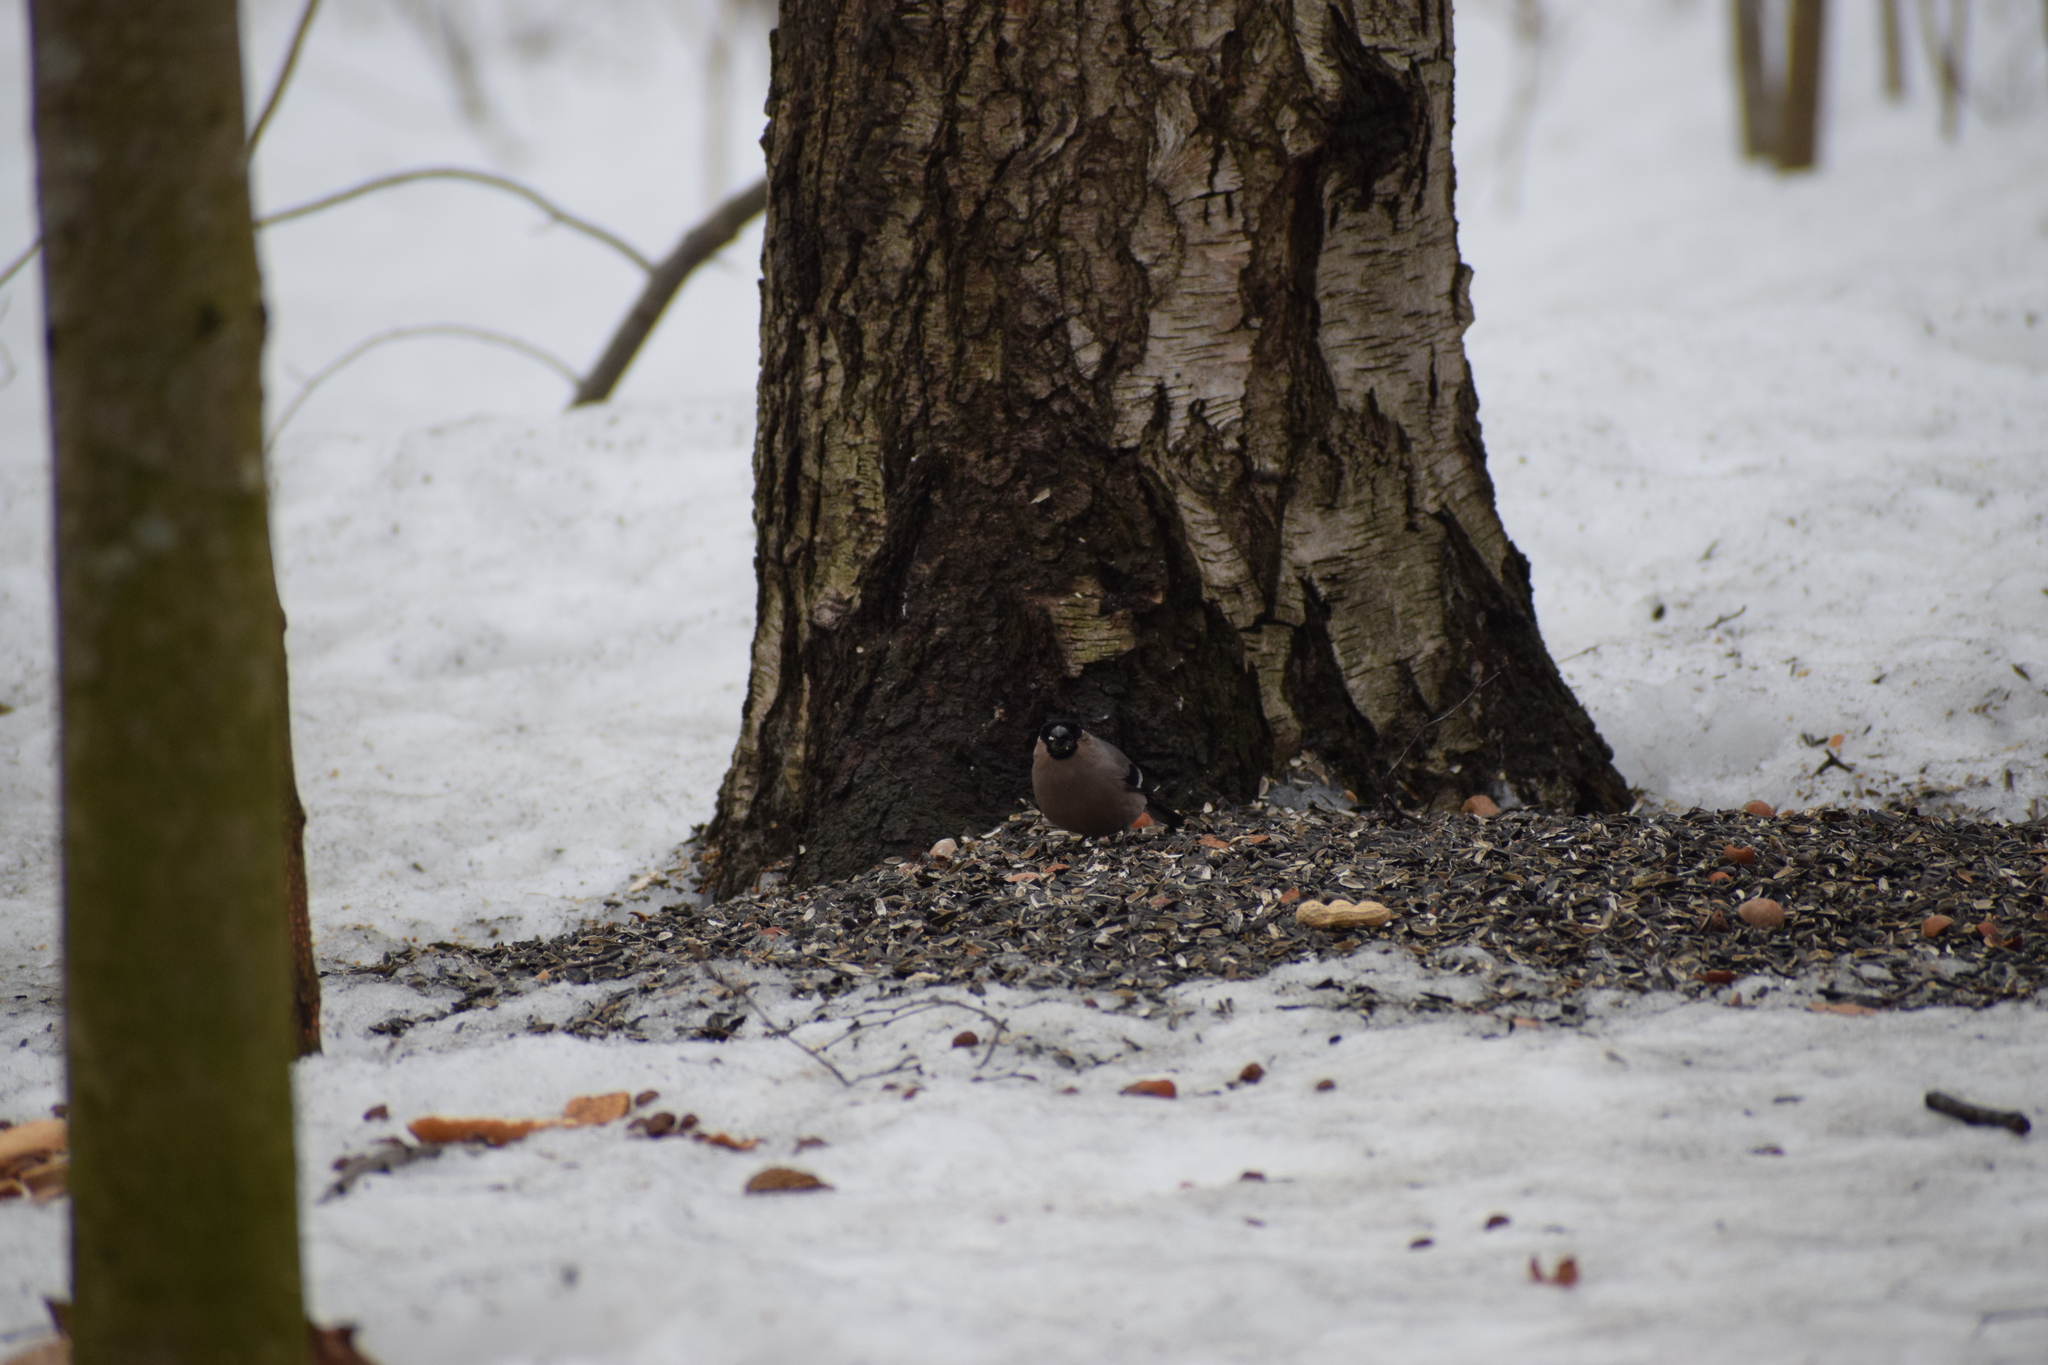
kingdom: Animalia
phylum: Chordata
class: Aves
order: Passeriformes
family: Fringillidae
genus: Pyrrhula
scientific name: Pyrrhula pyrrhula
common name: Eurasian bullfinch
